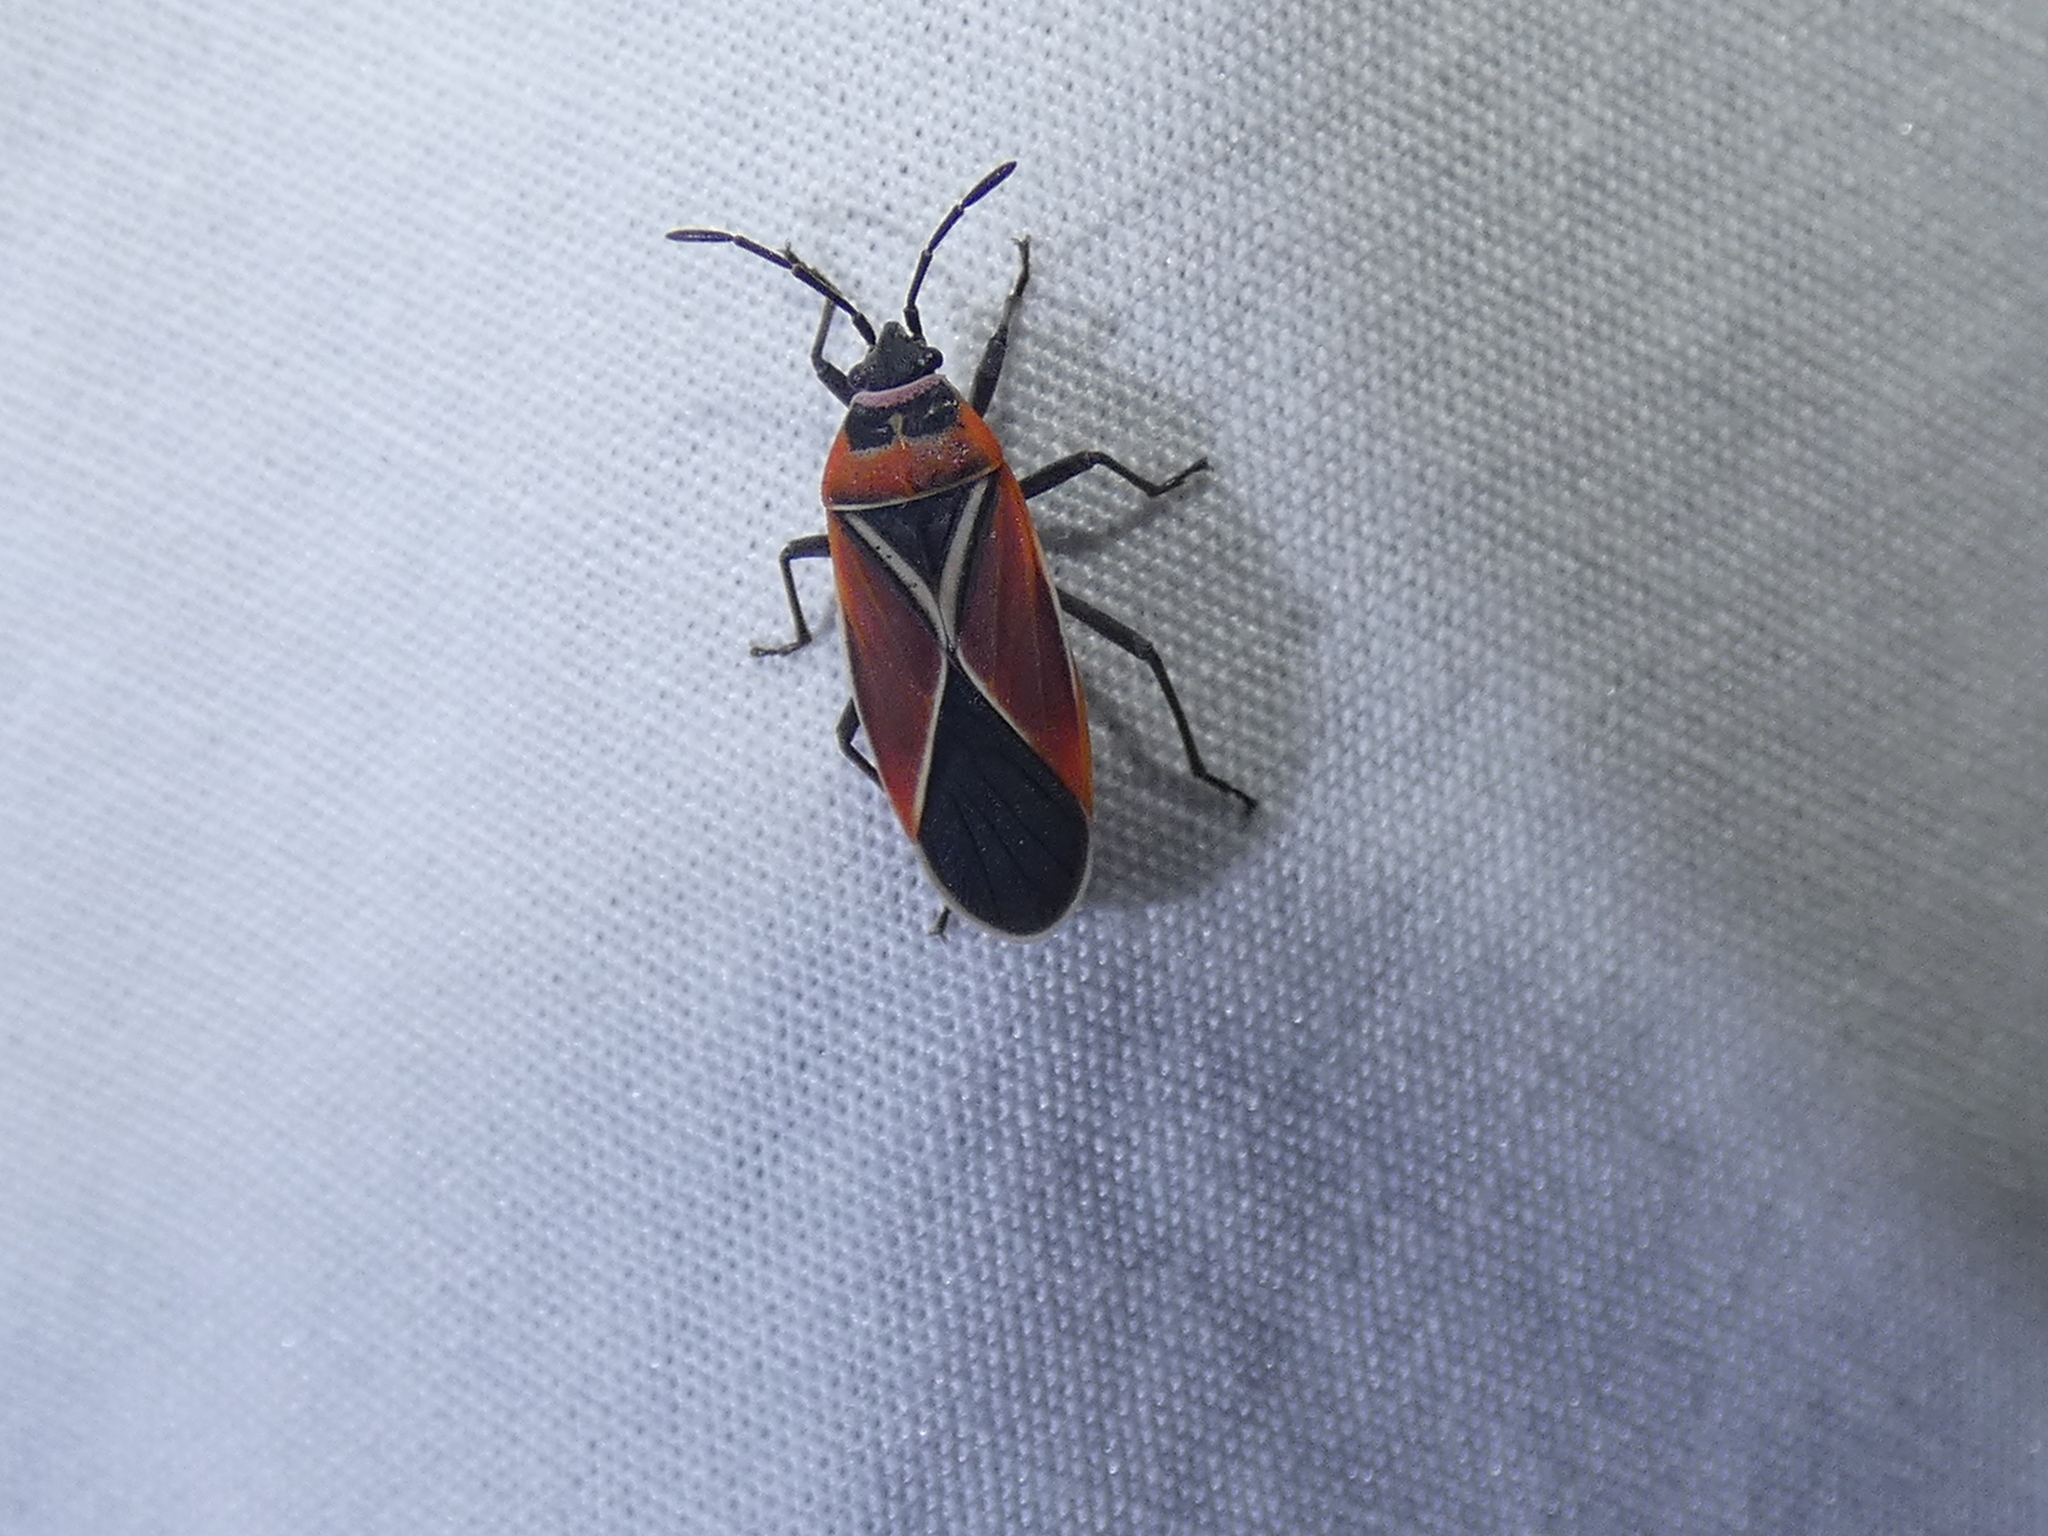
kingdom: Animalia
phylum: Arthropoda
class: Insecta
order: Hemiptera
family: Lygaeidae
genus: Neacoryphus
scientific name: Neacoryphus bicrucis
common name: Lygaeid bug
